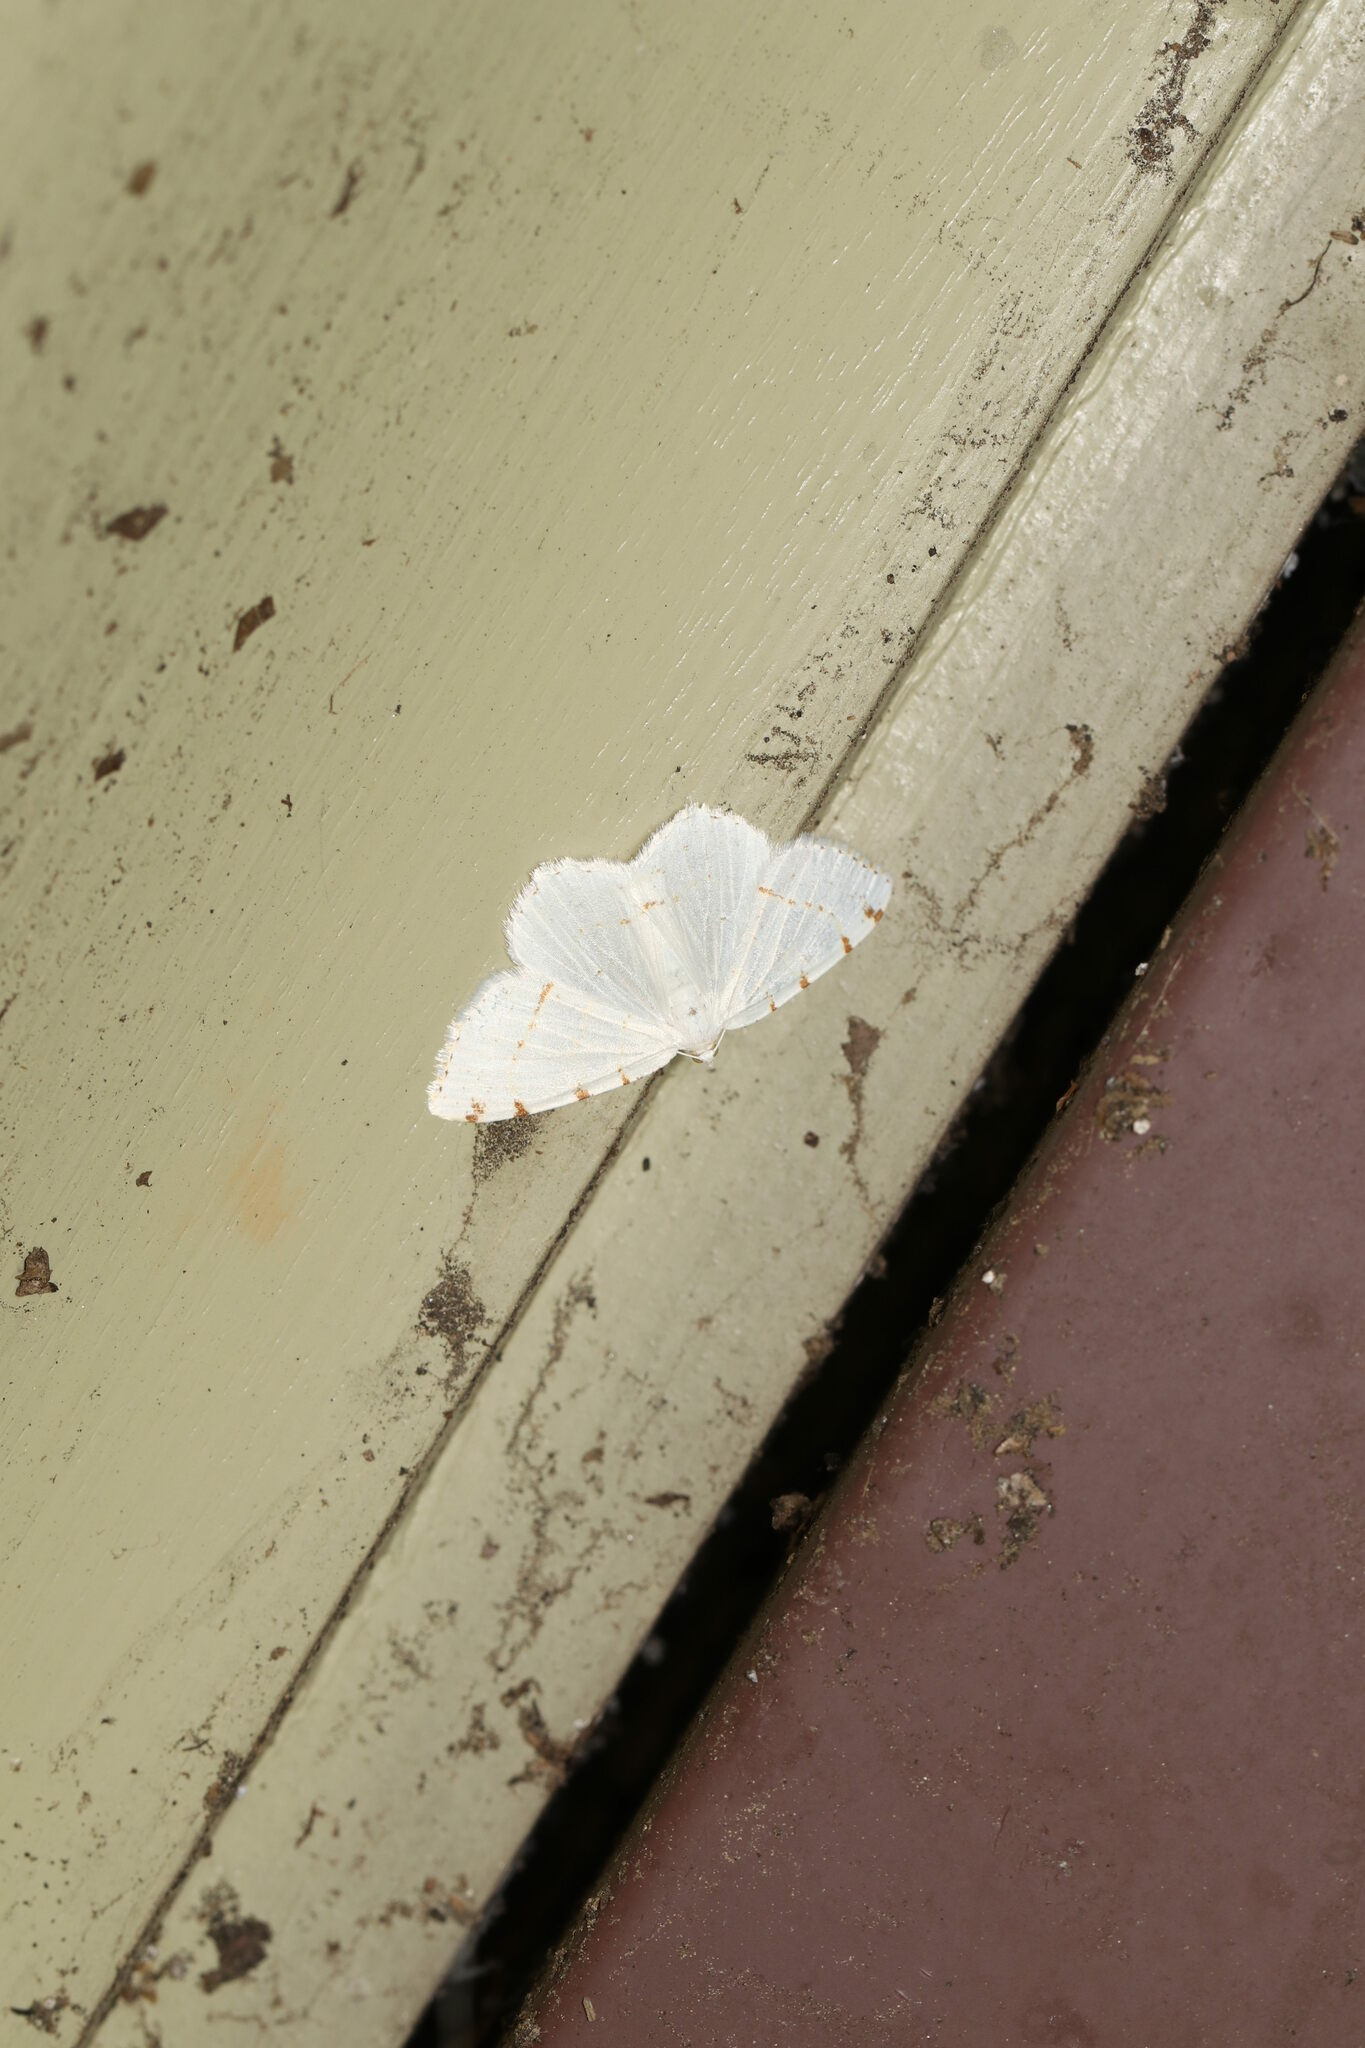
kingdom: Animalia
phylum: Arthropoda
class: Insecta
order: Lepidoptera
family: Geometridae
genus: Macaria
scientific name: Macaria pustularia
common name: Lesser maple spanworm moth
